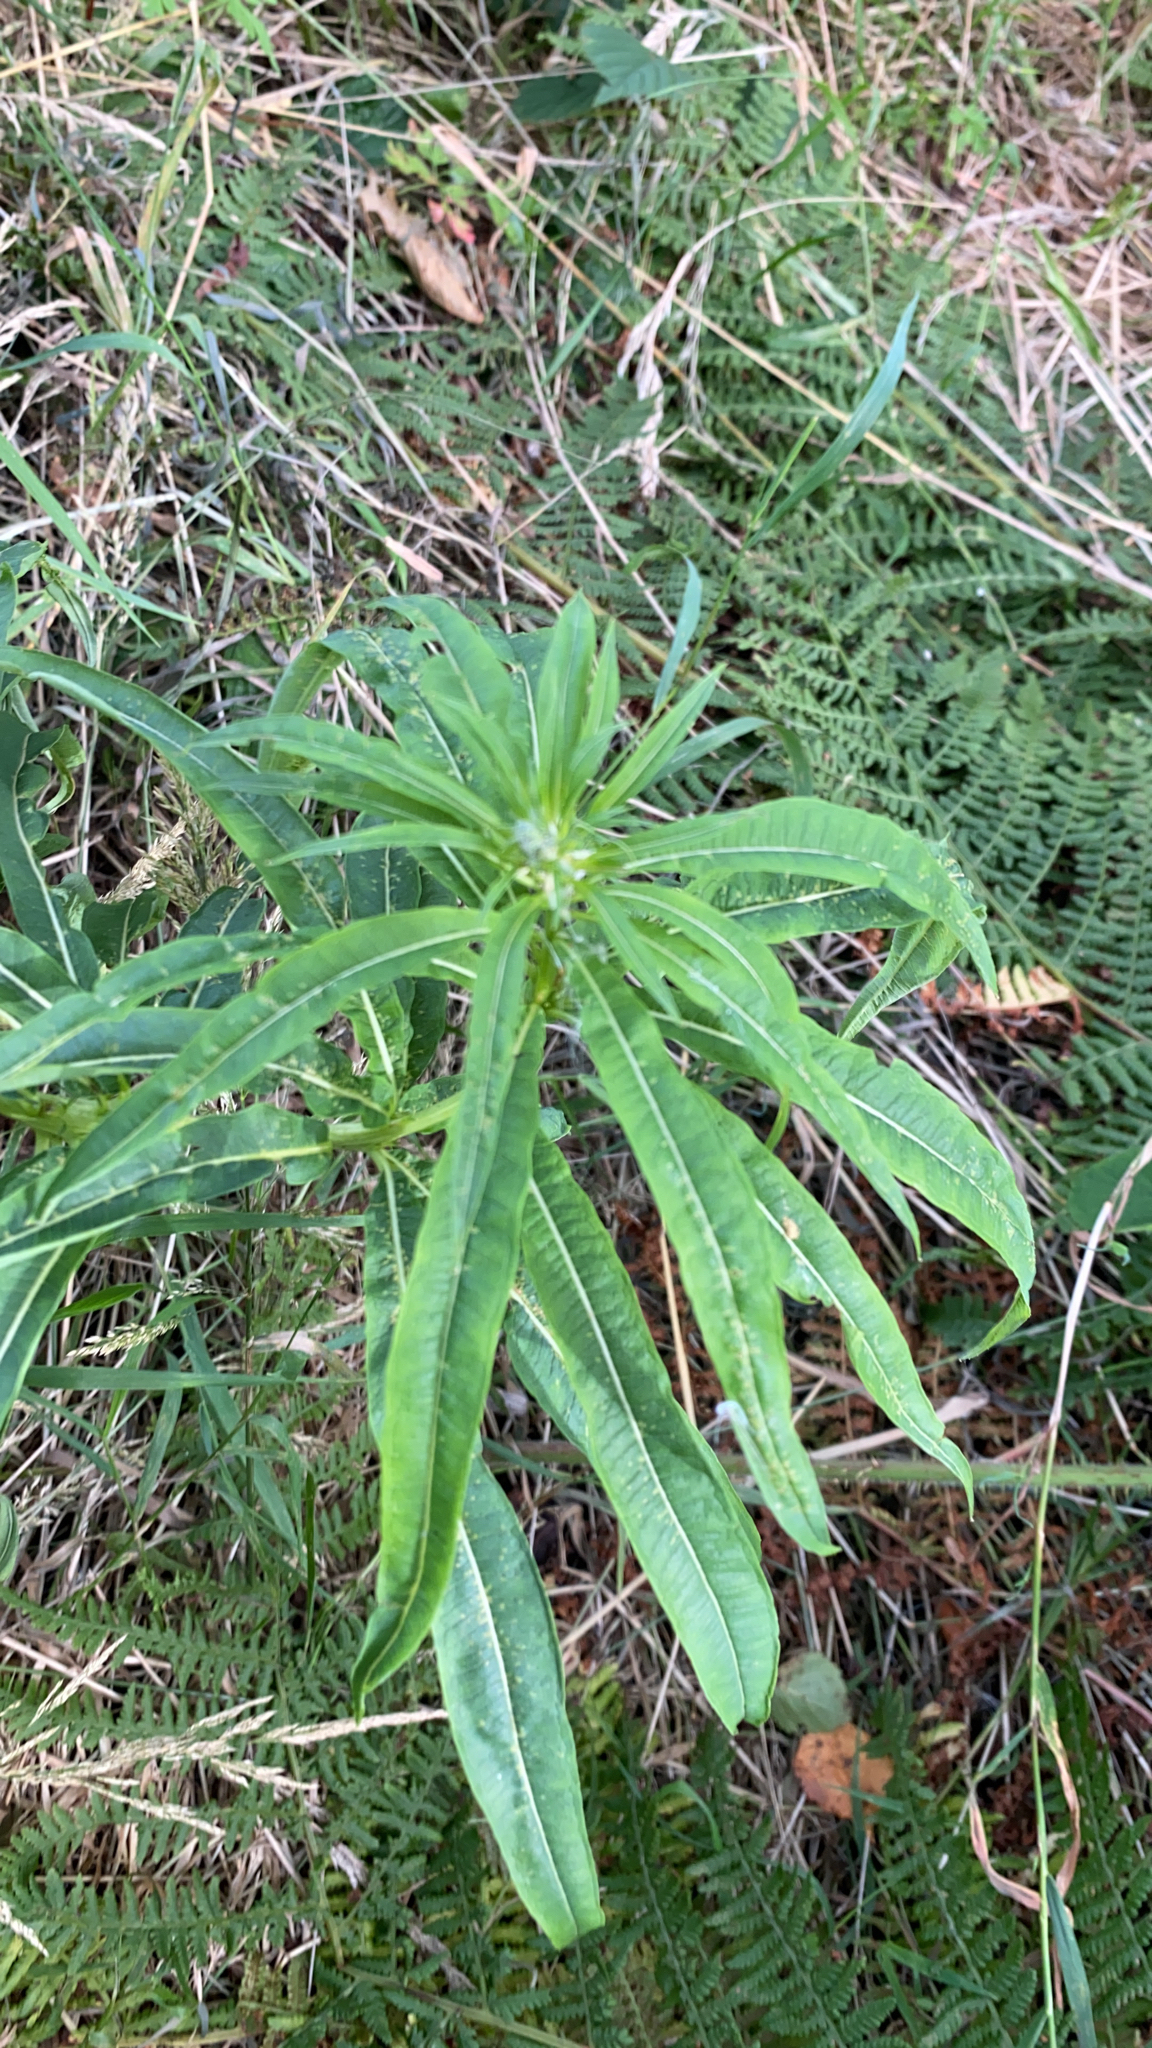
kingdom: Plantae
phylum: Tracheophyta
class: Magnoliopsida
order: Myrtales
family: Onagraceae
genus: Chamaenerion
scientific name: Chamaenerion angustifolium
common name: Fireweed
